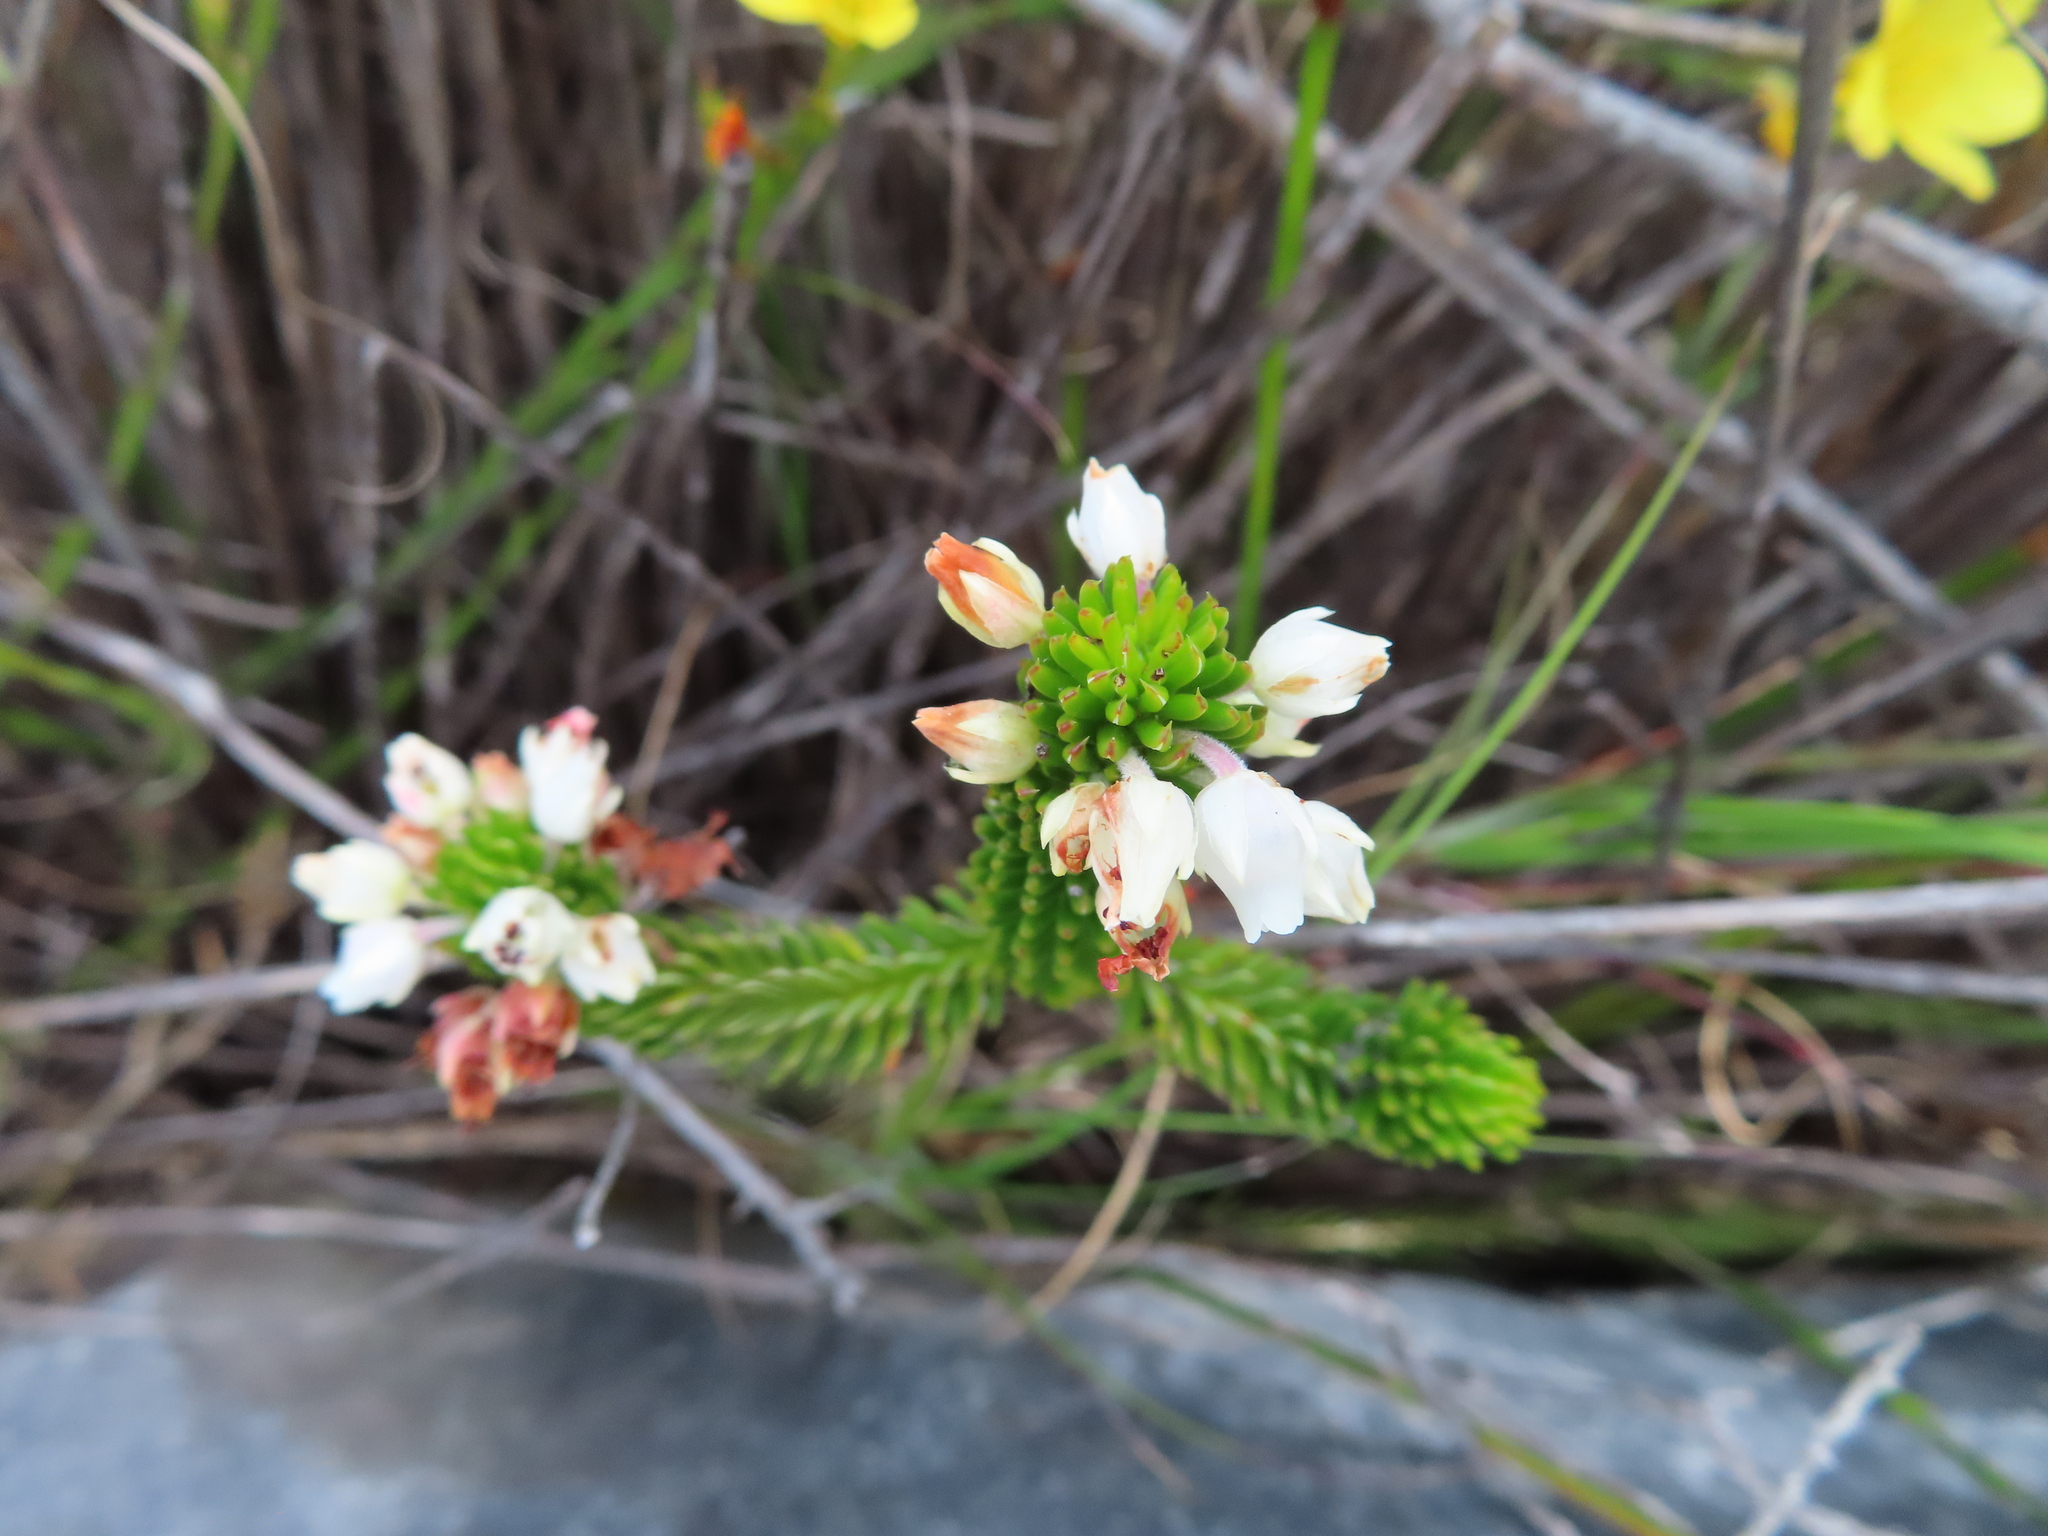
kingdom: Plantae
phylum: Tracheophyta
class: Magnoliopsida
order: Ericales
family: Ericaceae
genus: Erica
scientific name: Erica pulvinata
